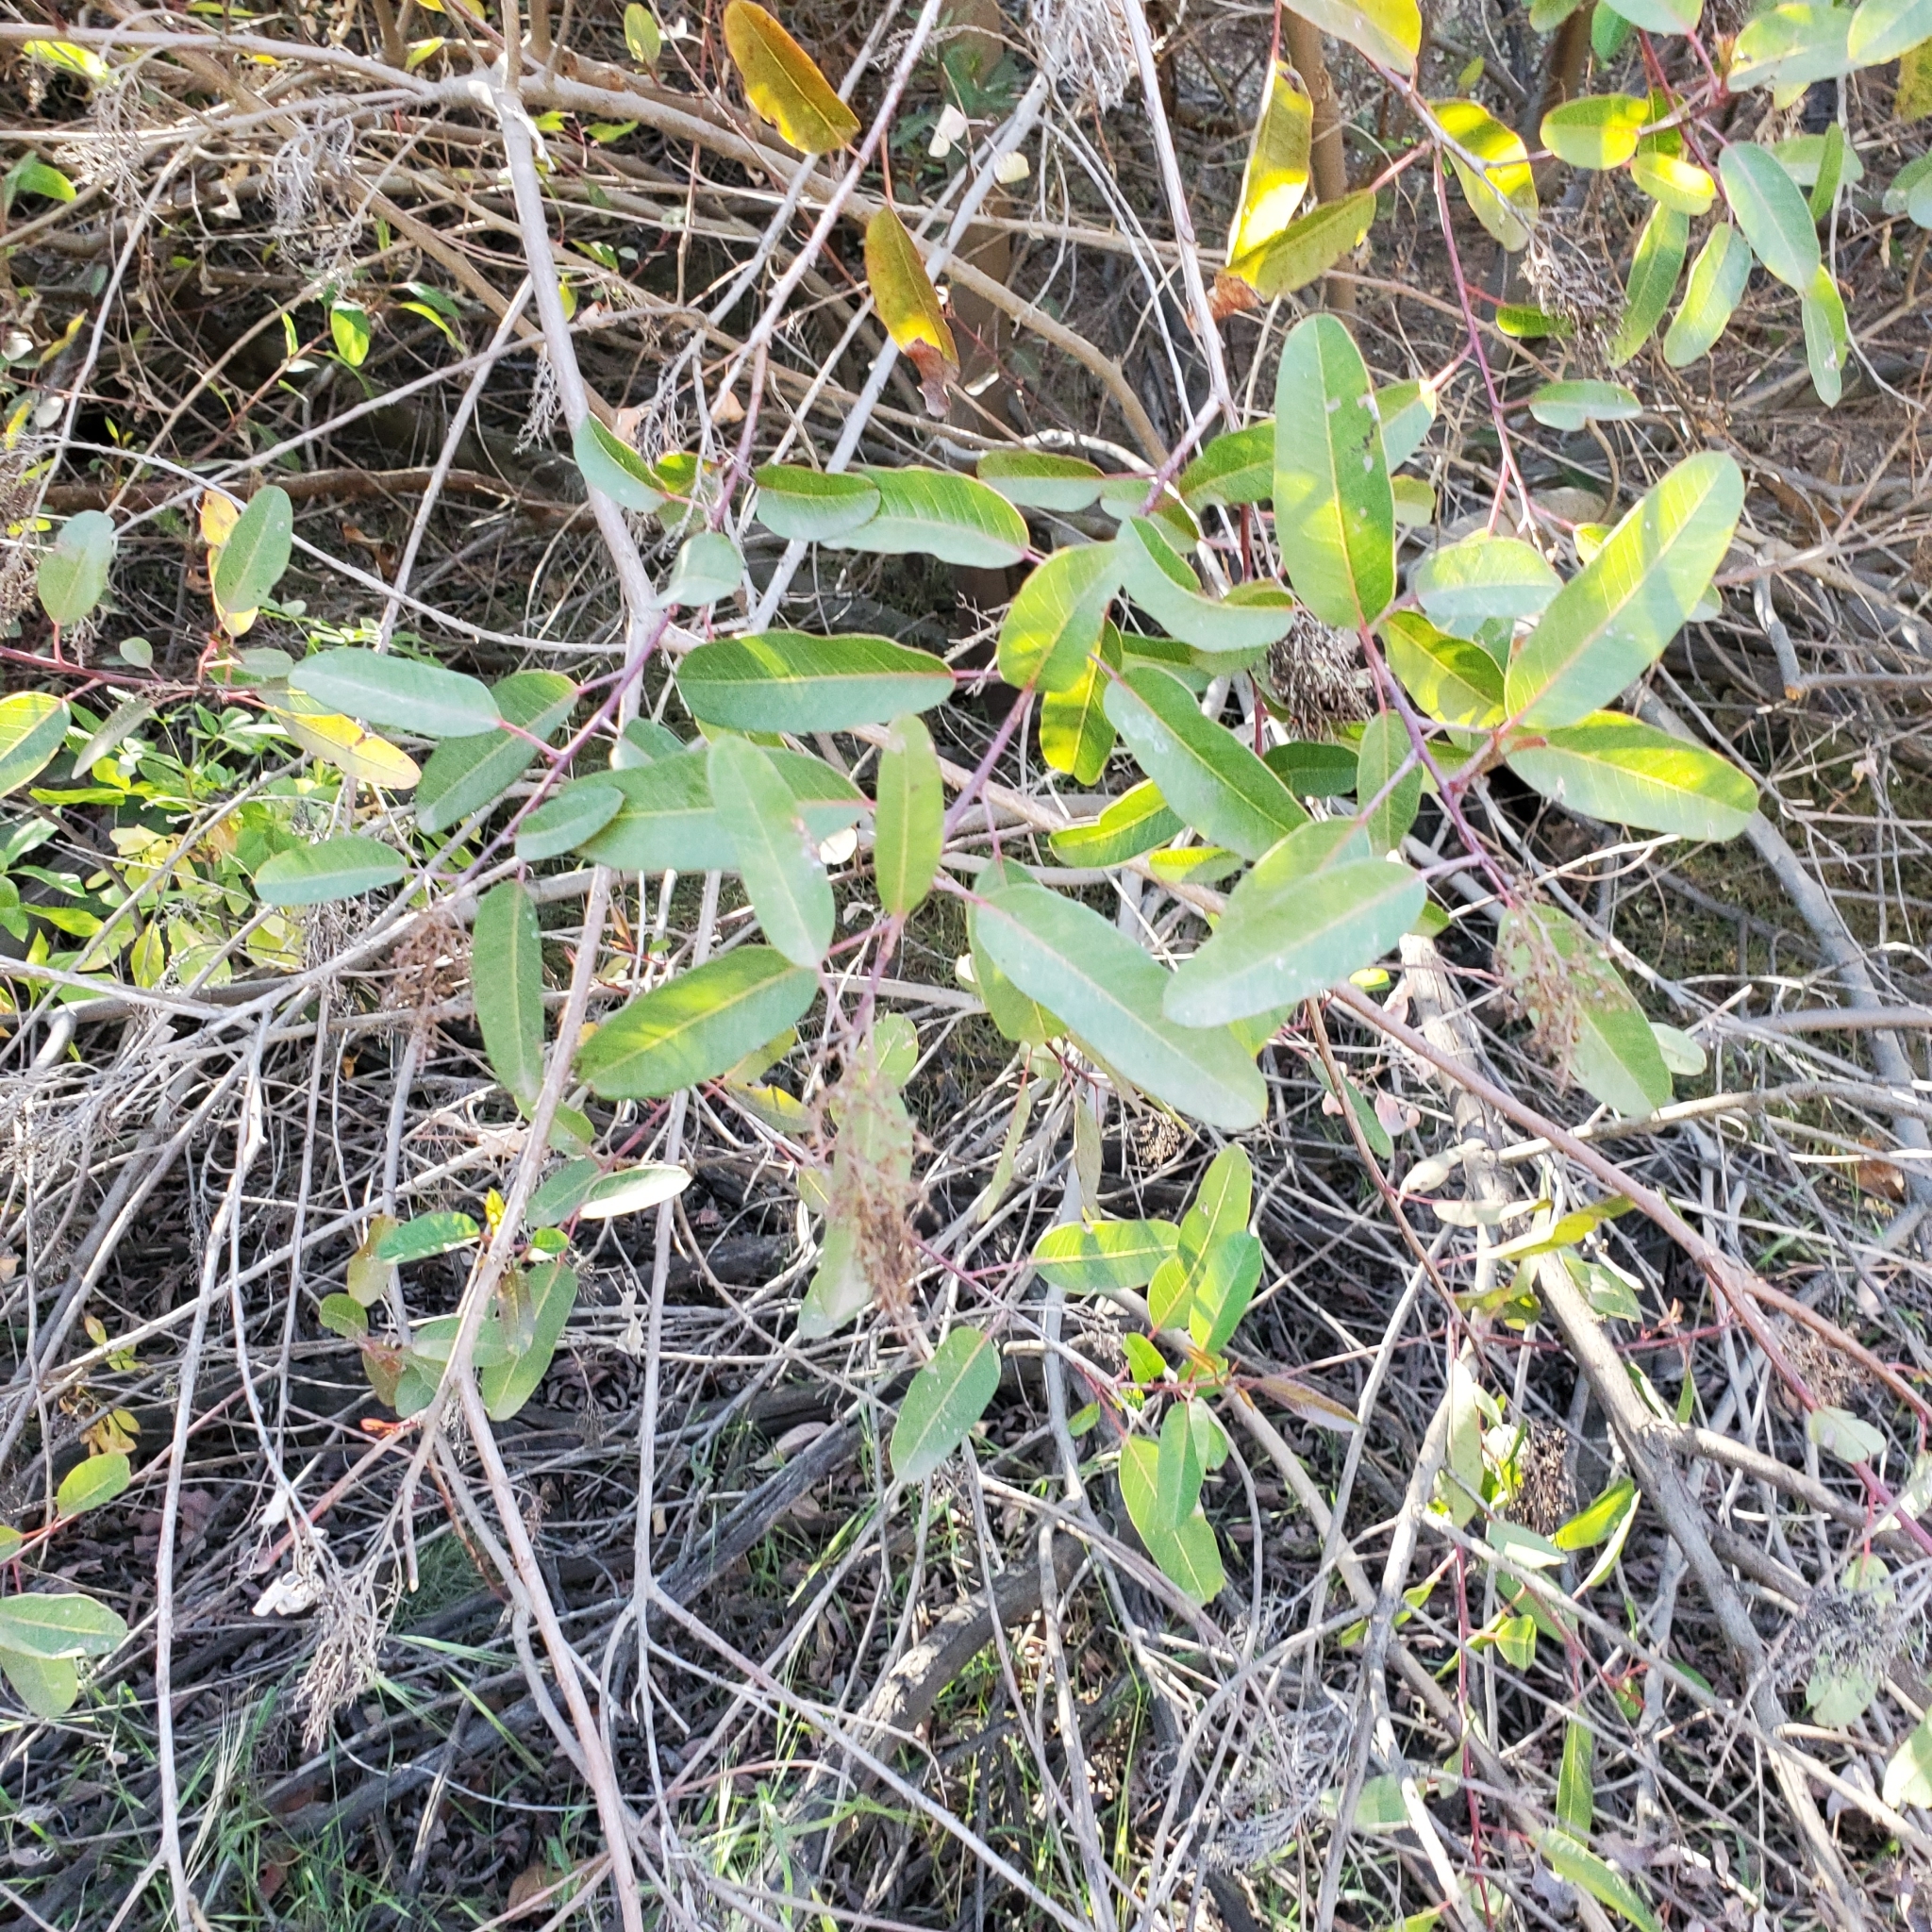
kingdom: Plantae
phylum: Tracheophyta
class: Magnoliopsida
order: Sapindales
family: Anacardiaceae
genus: Malosma
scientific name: Malosma laurina
